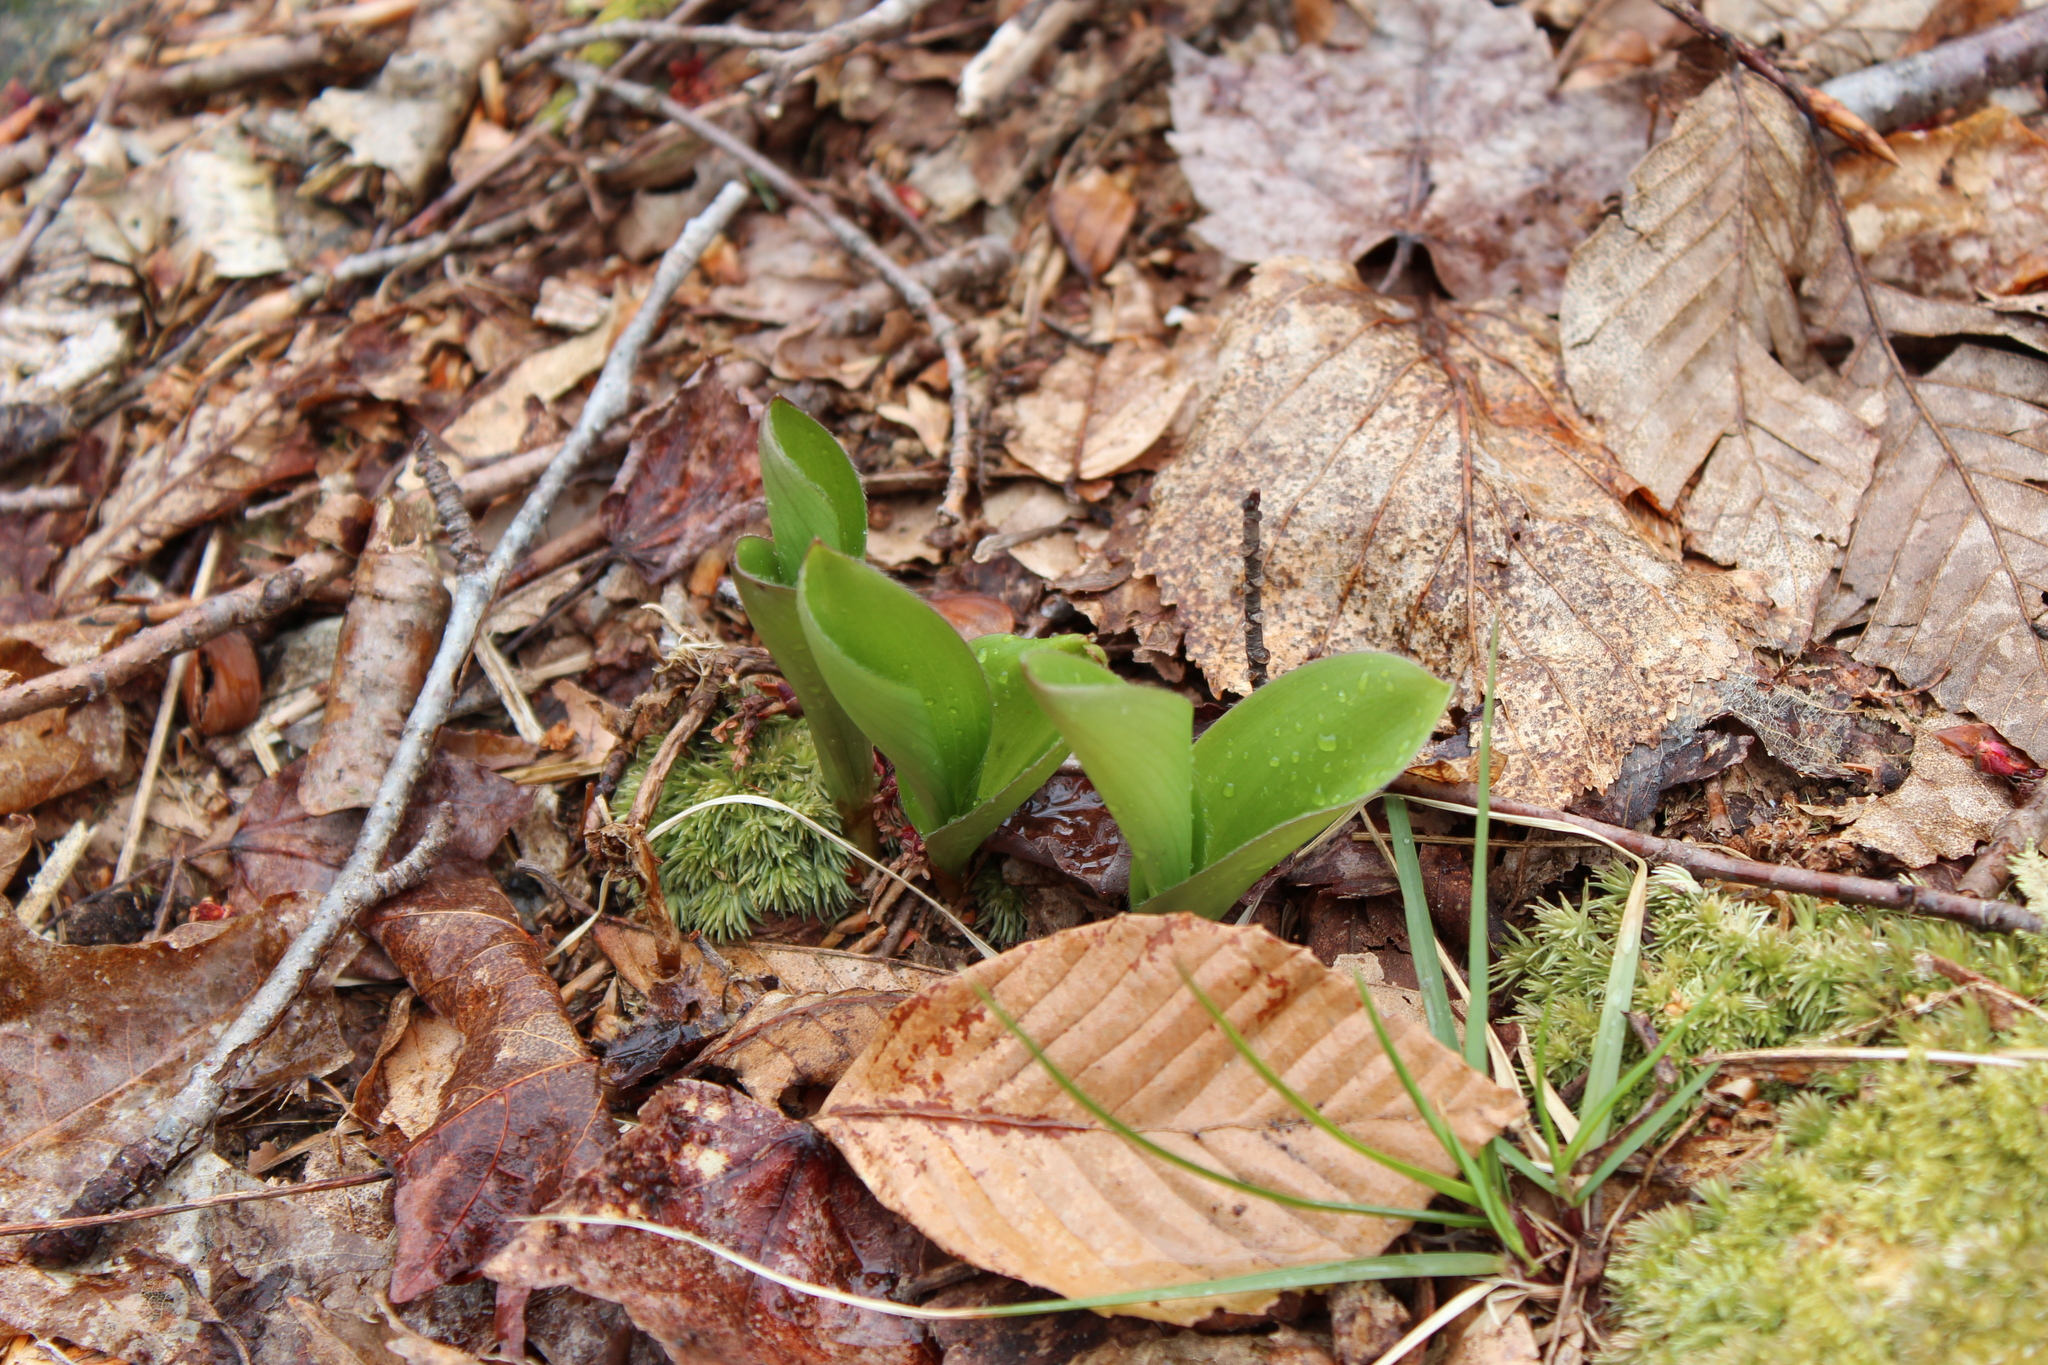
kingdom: Plantae
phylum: Tracheophyta
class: Liliopsida
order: Liliales
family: Liliaceae
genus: Clintonia
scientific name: Clintonia borealis
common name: Yellow clintonia
